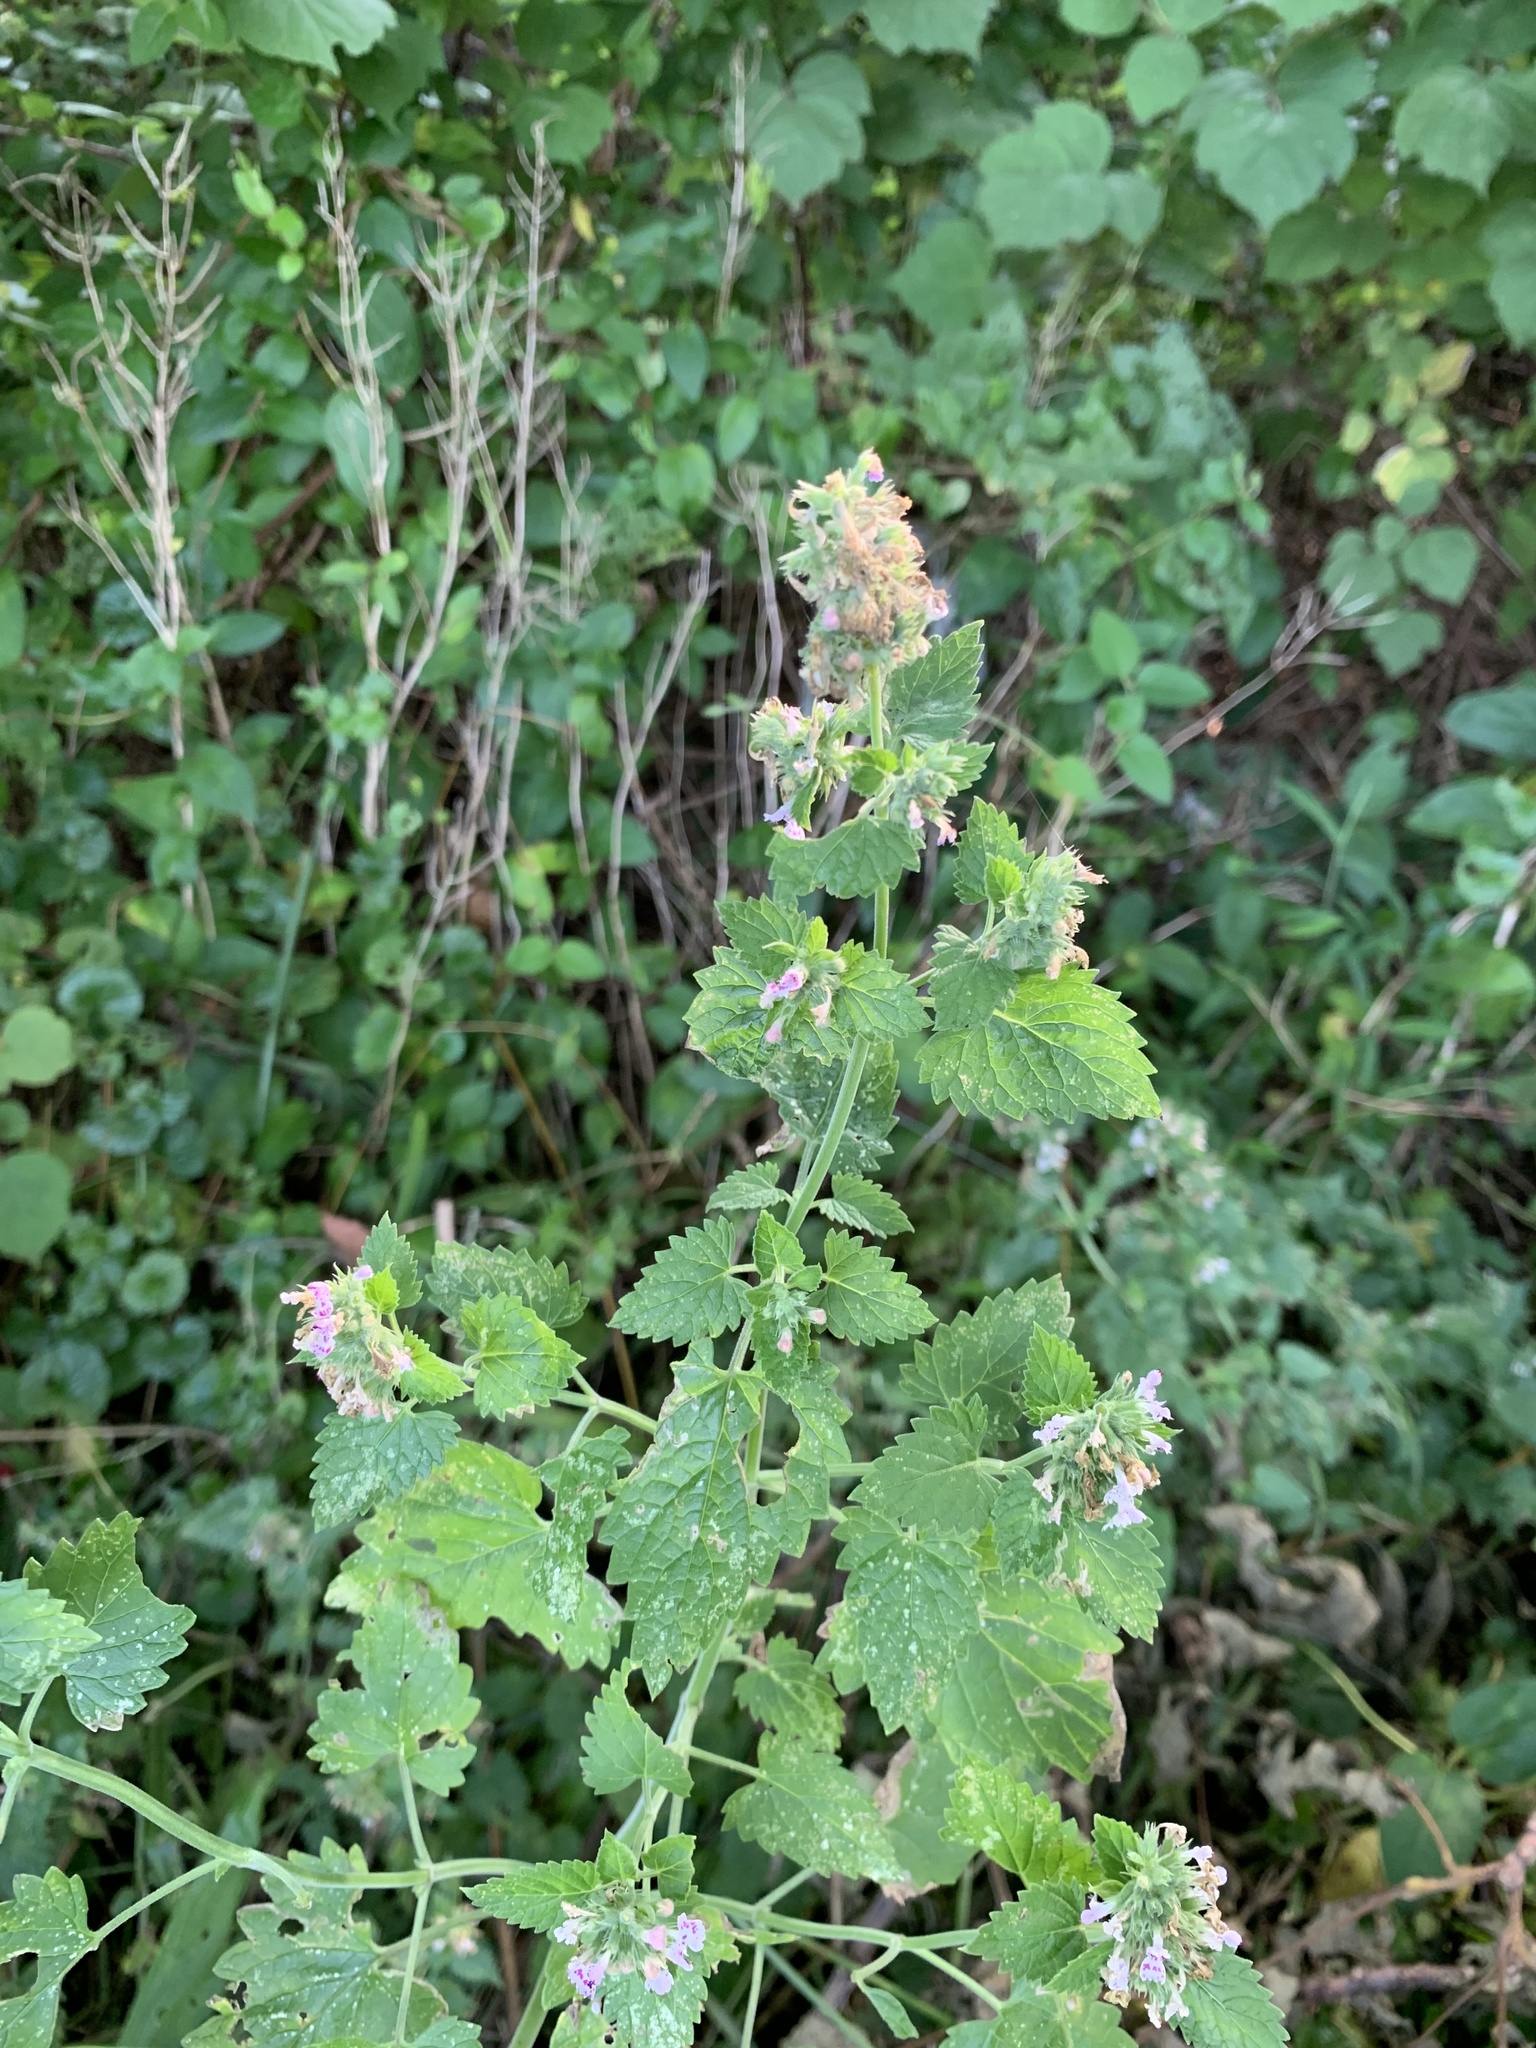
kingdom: Plantae
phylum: Tracheophyta
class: Magnoliopsida
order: Lamiales
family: Lamiaceae
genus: Nepeta
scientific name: Nepeta cataria
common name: Catnip
